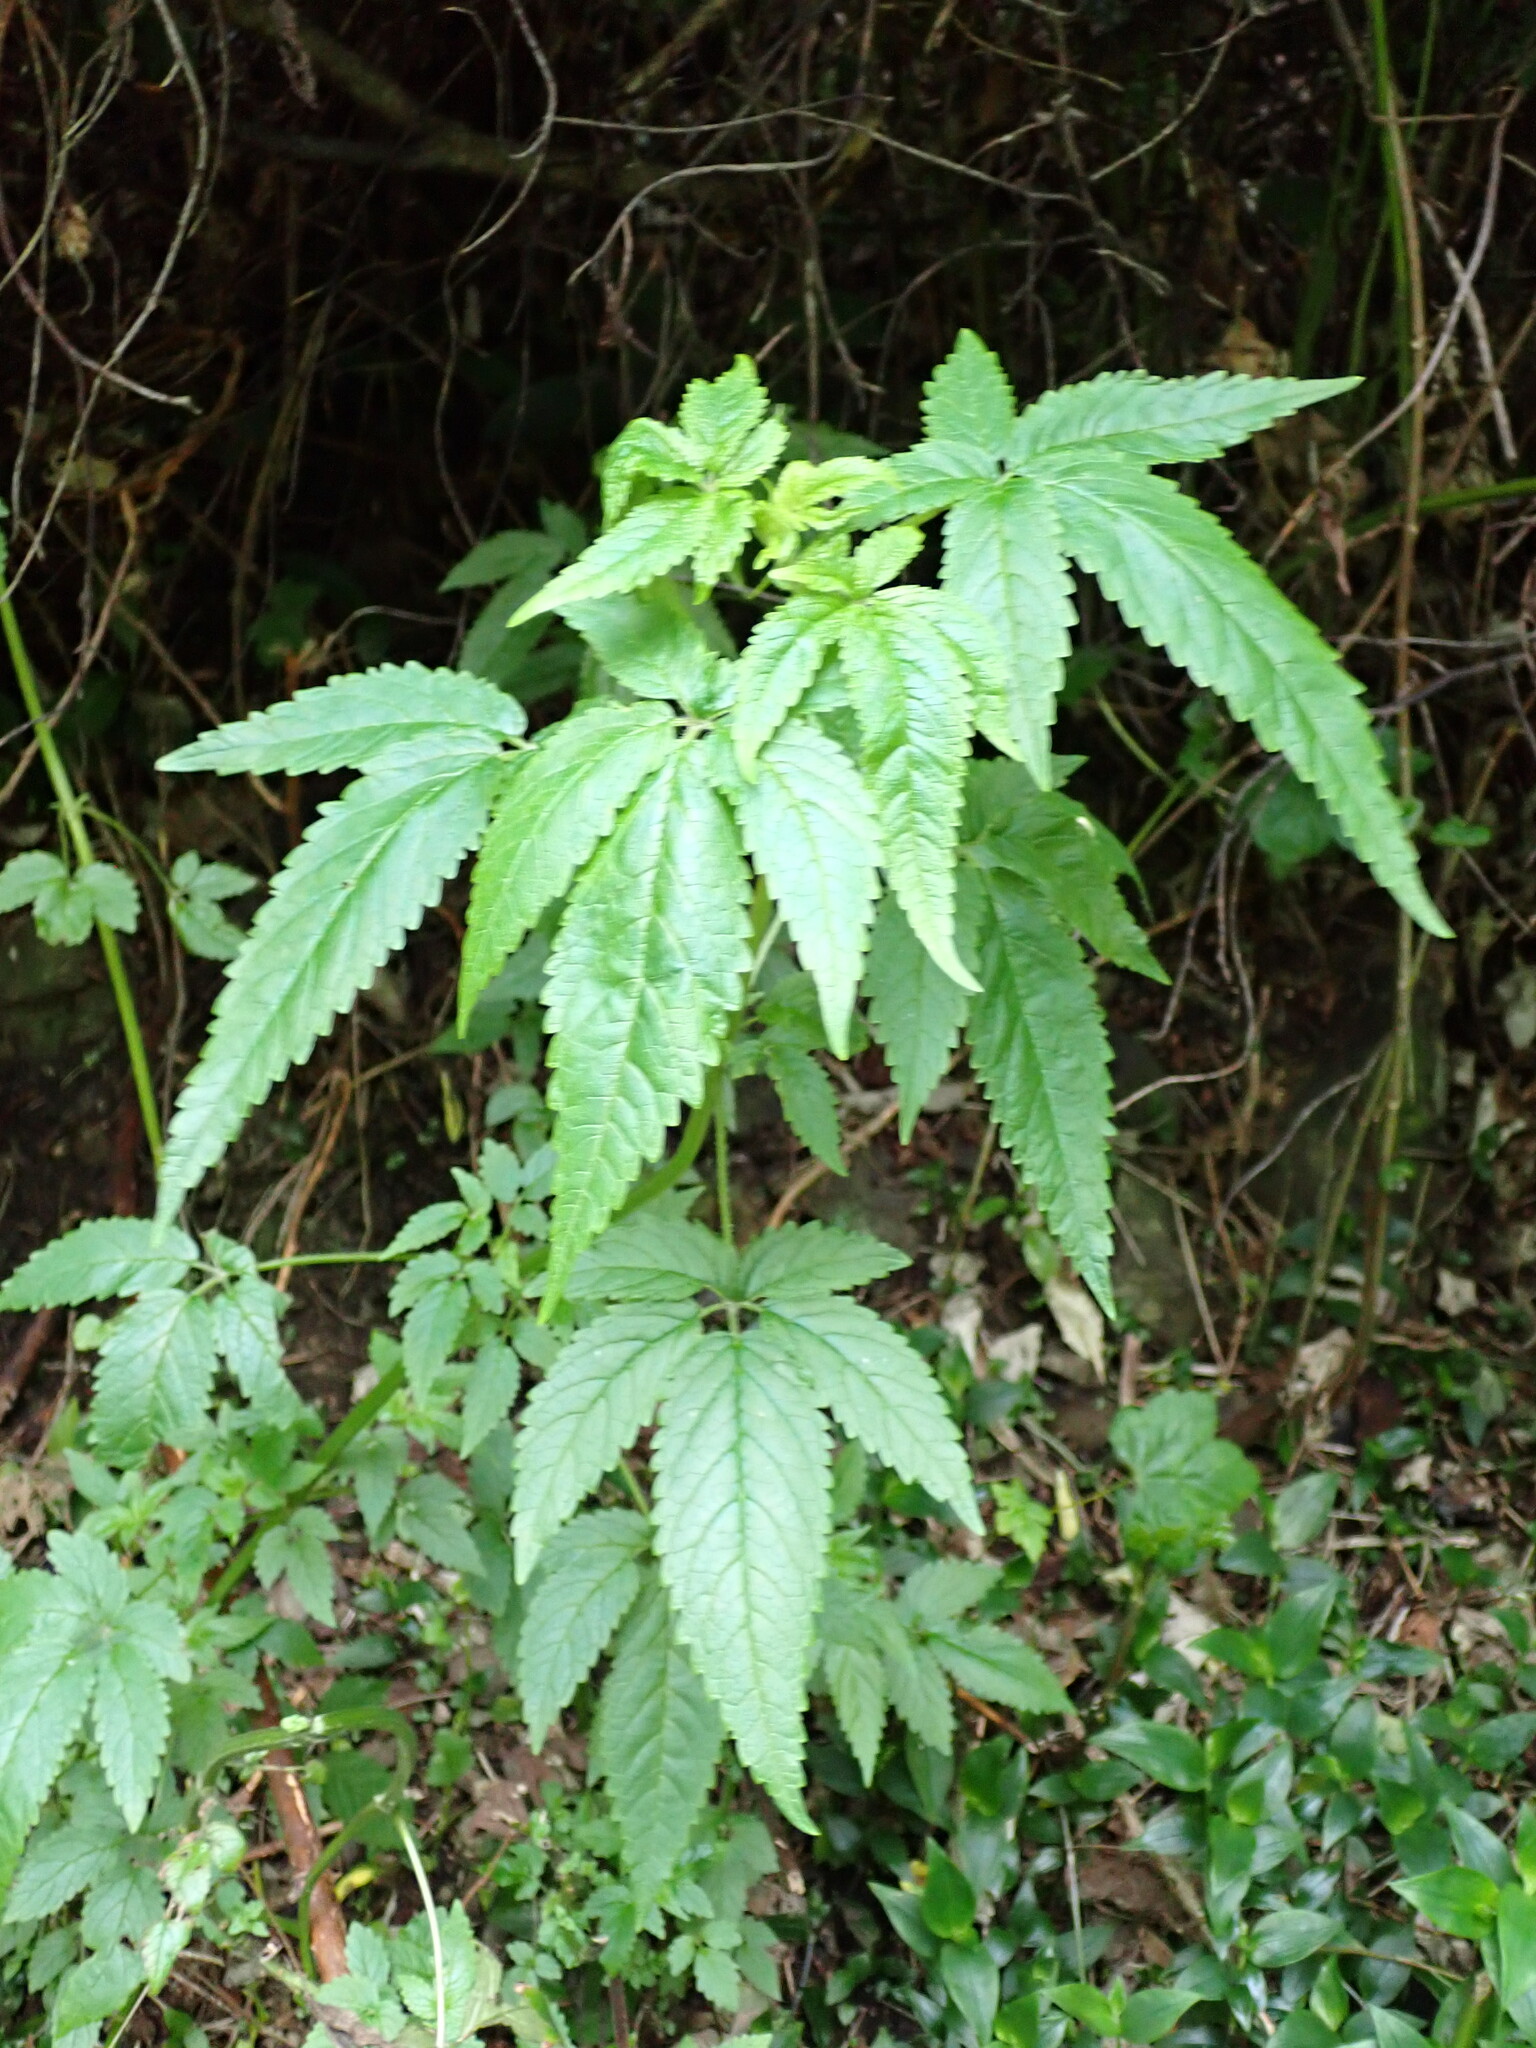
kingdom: Plantae
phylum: Tracheophyta
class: Magnoliopsida
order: Lamiales
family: Lamiaceae
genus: Cedronella
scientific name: Cedronella canariensis
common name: Canary islands balm
